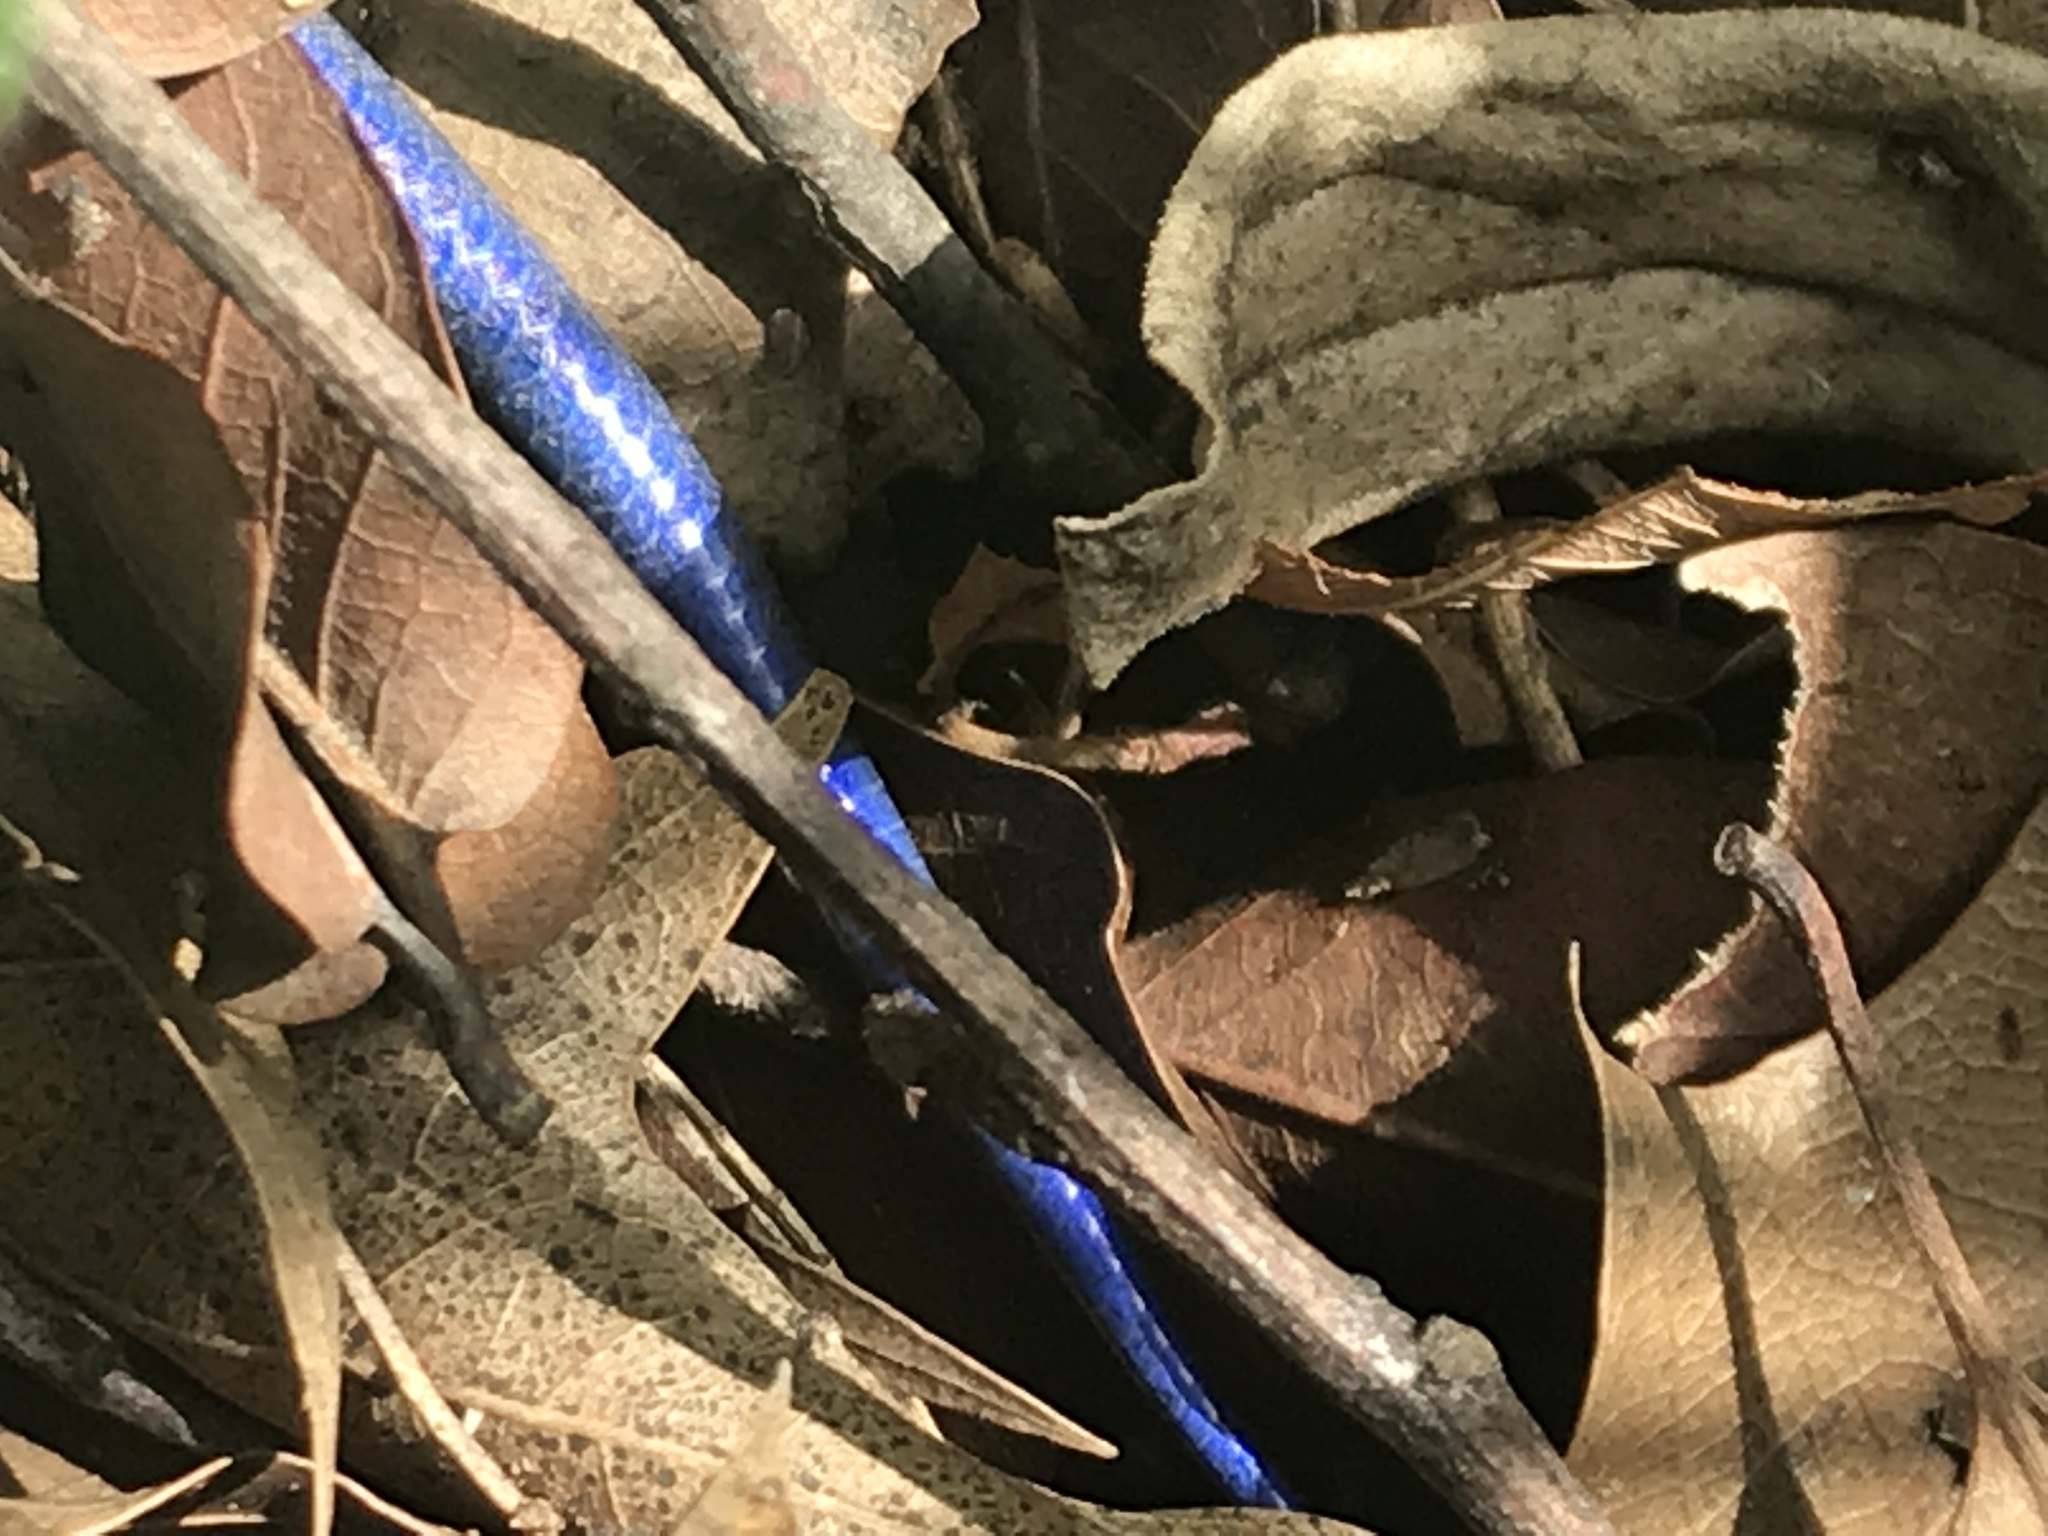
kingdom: Animalia
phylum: Chordata
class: Squamata
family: Scincidae
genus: Plestiodon
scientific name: Plestiodon dicei
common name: Dice's short-nosed skink
